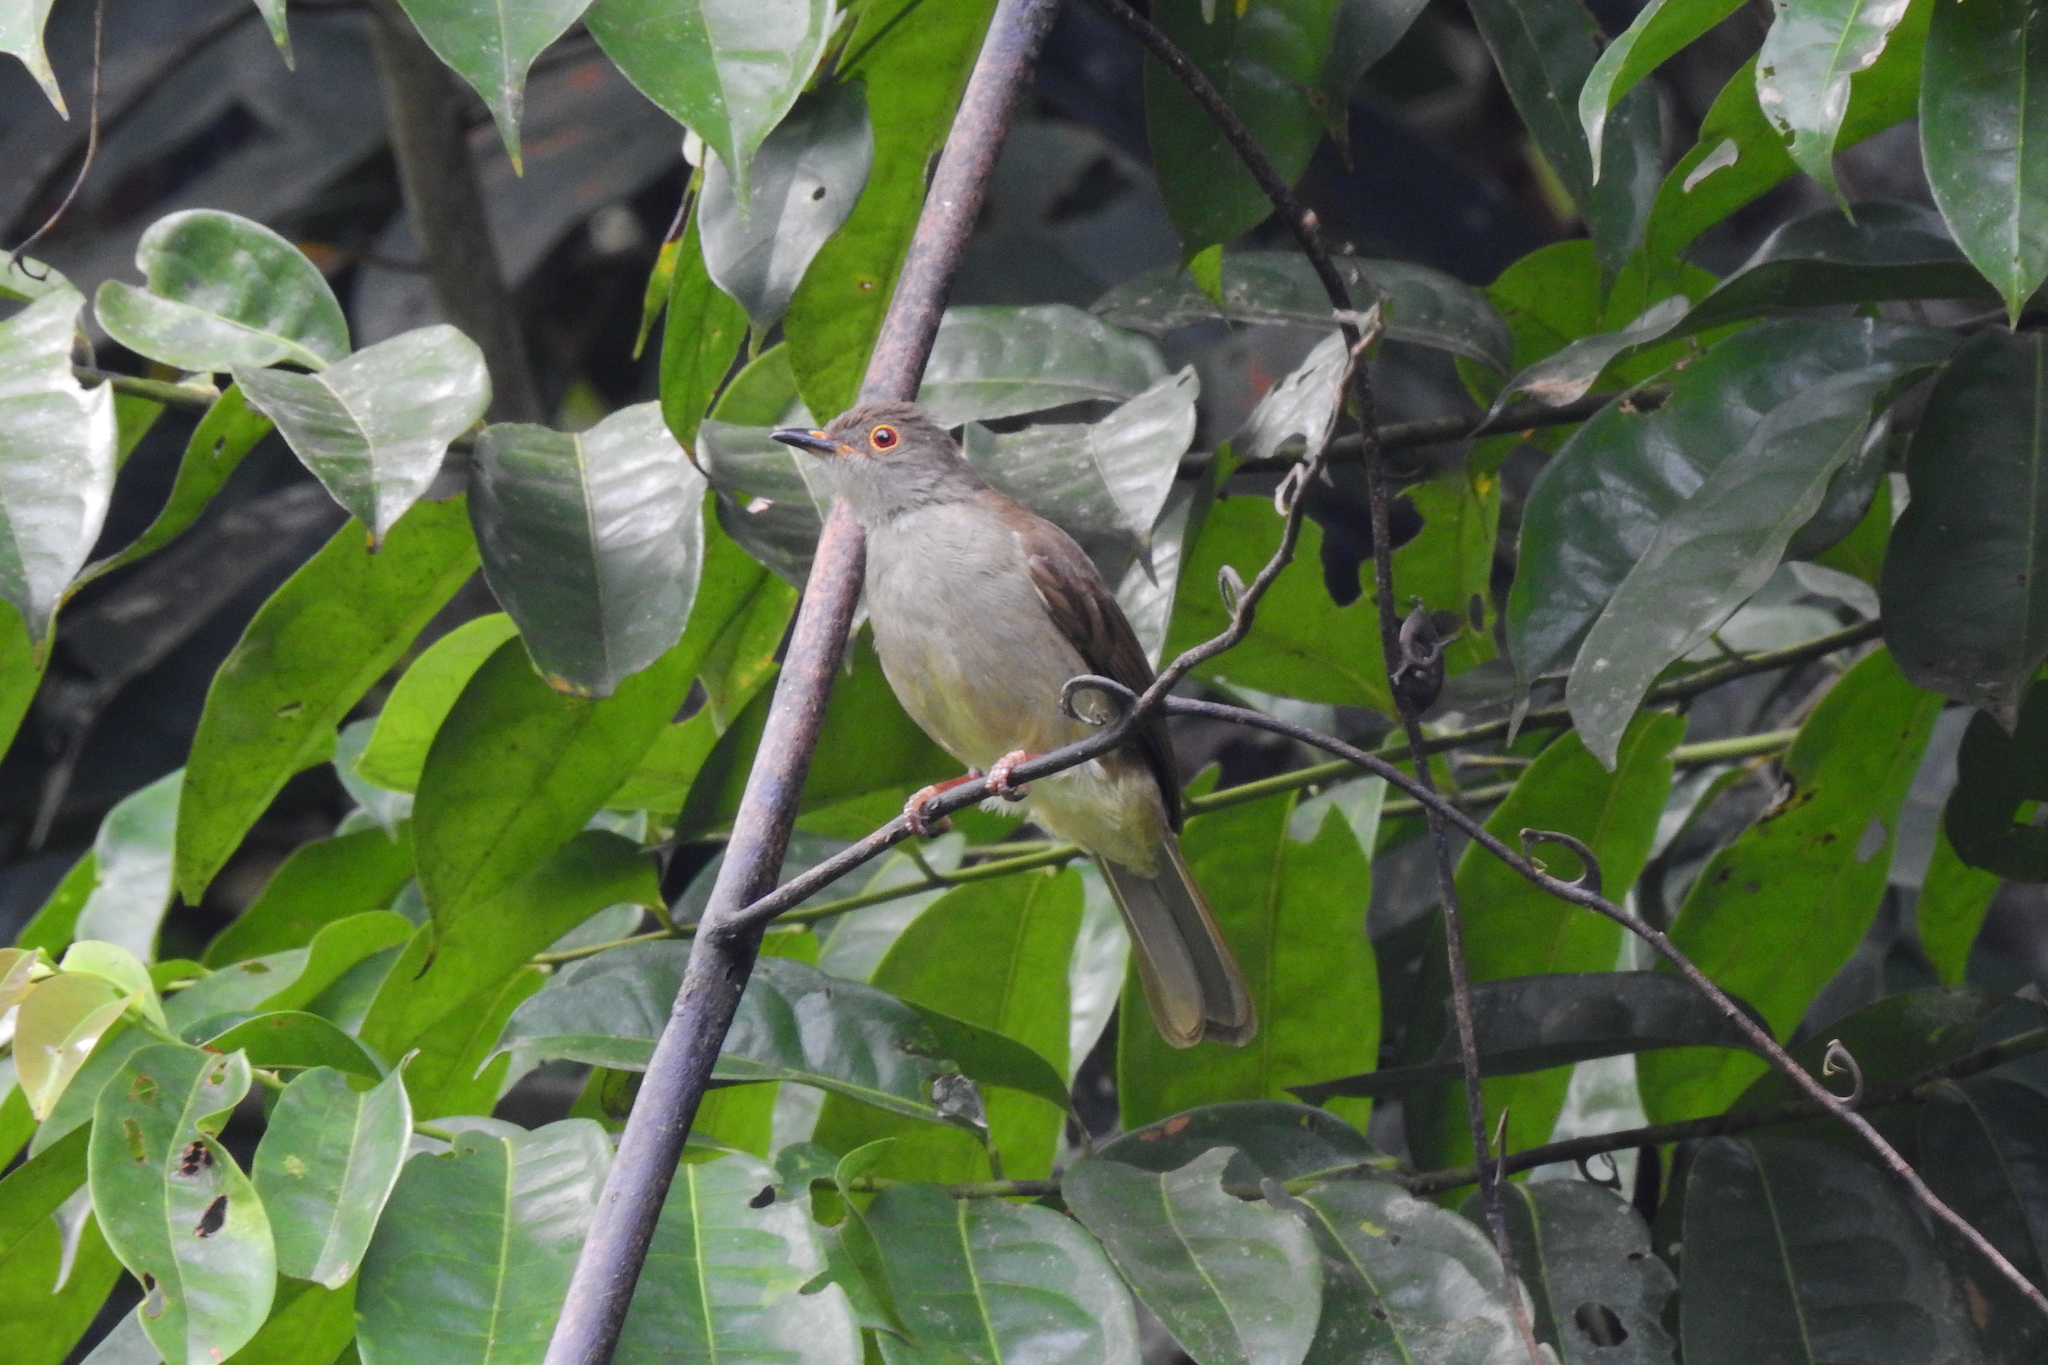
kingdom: Animalia
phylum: Chordata
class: Aves
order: Passeriformes
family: Pycnonotidae
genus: Rubigula
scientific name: Rubigula erythropthalmos
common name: Spectacled bulbul
